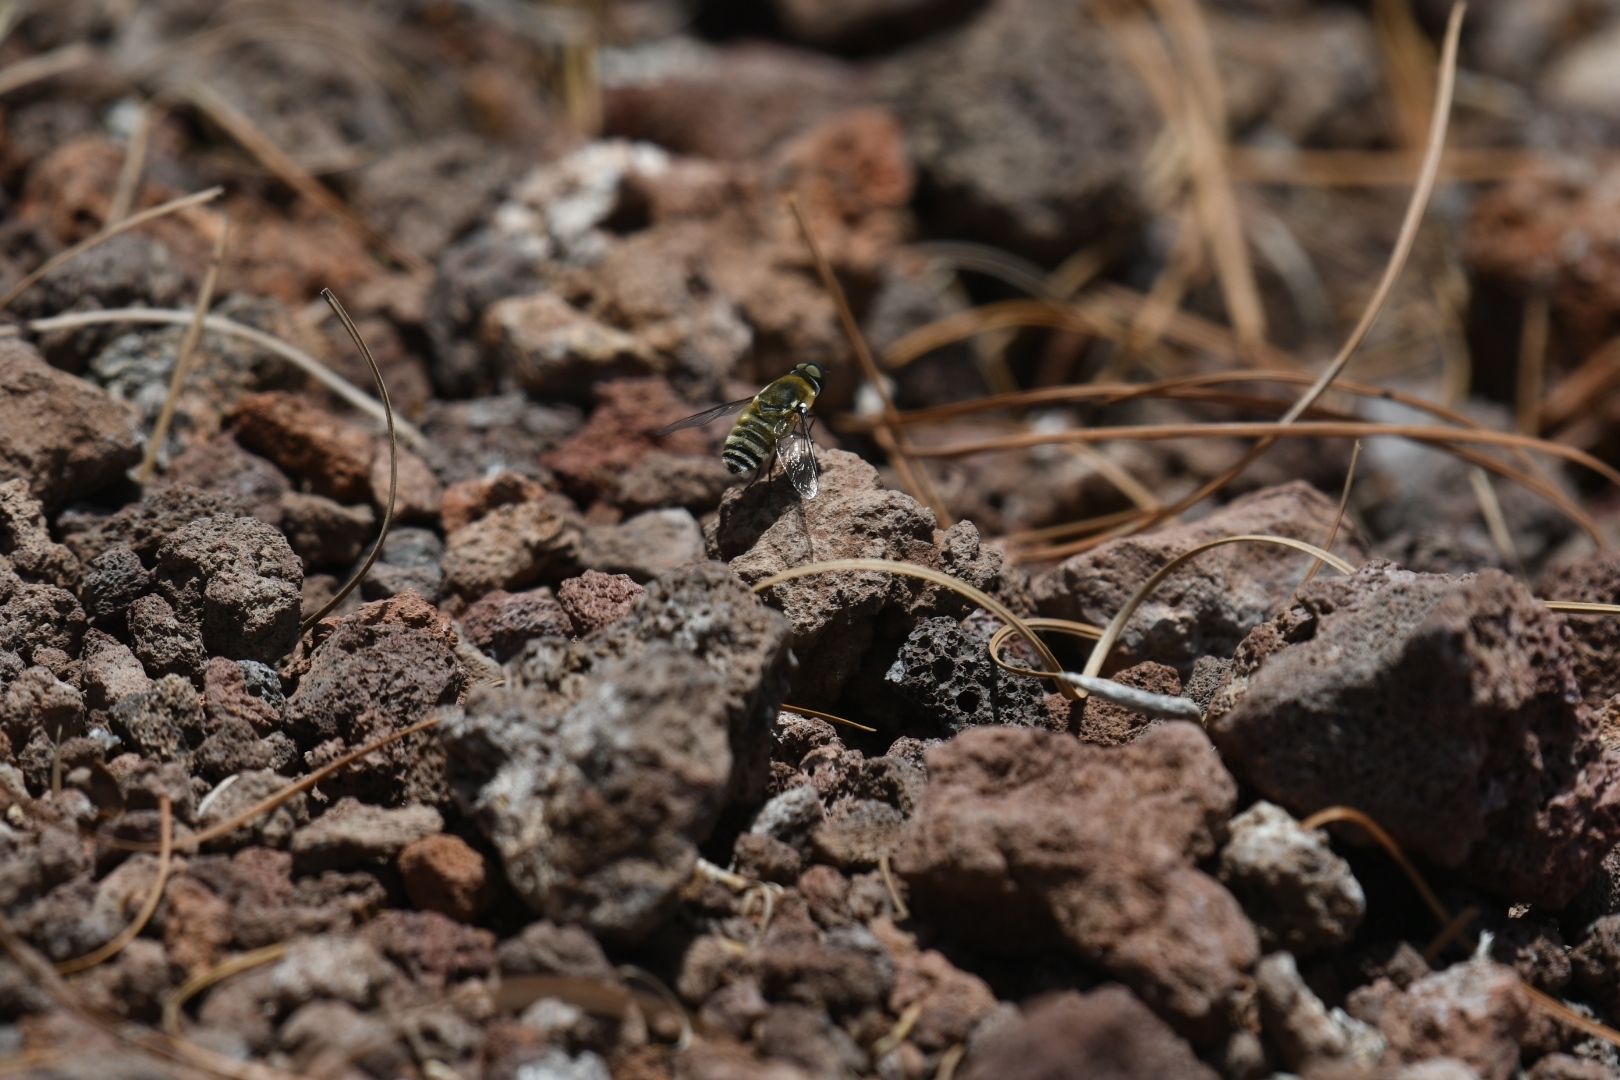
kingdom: Animalia
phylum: Arthropoda
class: Insecta
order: Diptera
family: Bombyliidae
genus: Villa
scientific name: Villa nigrifrons
